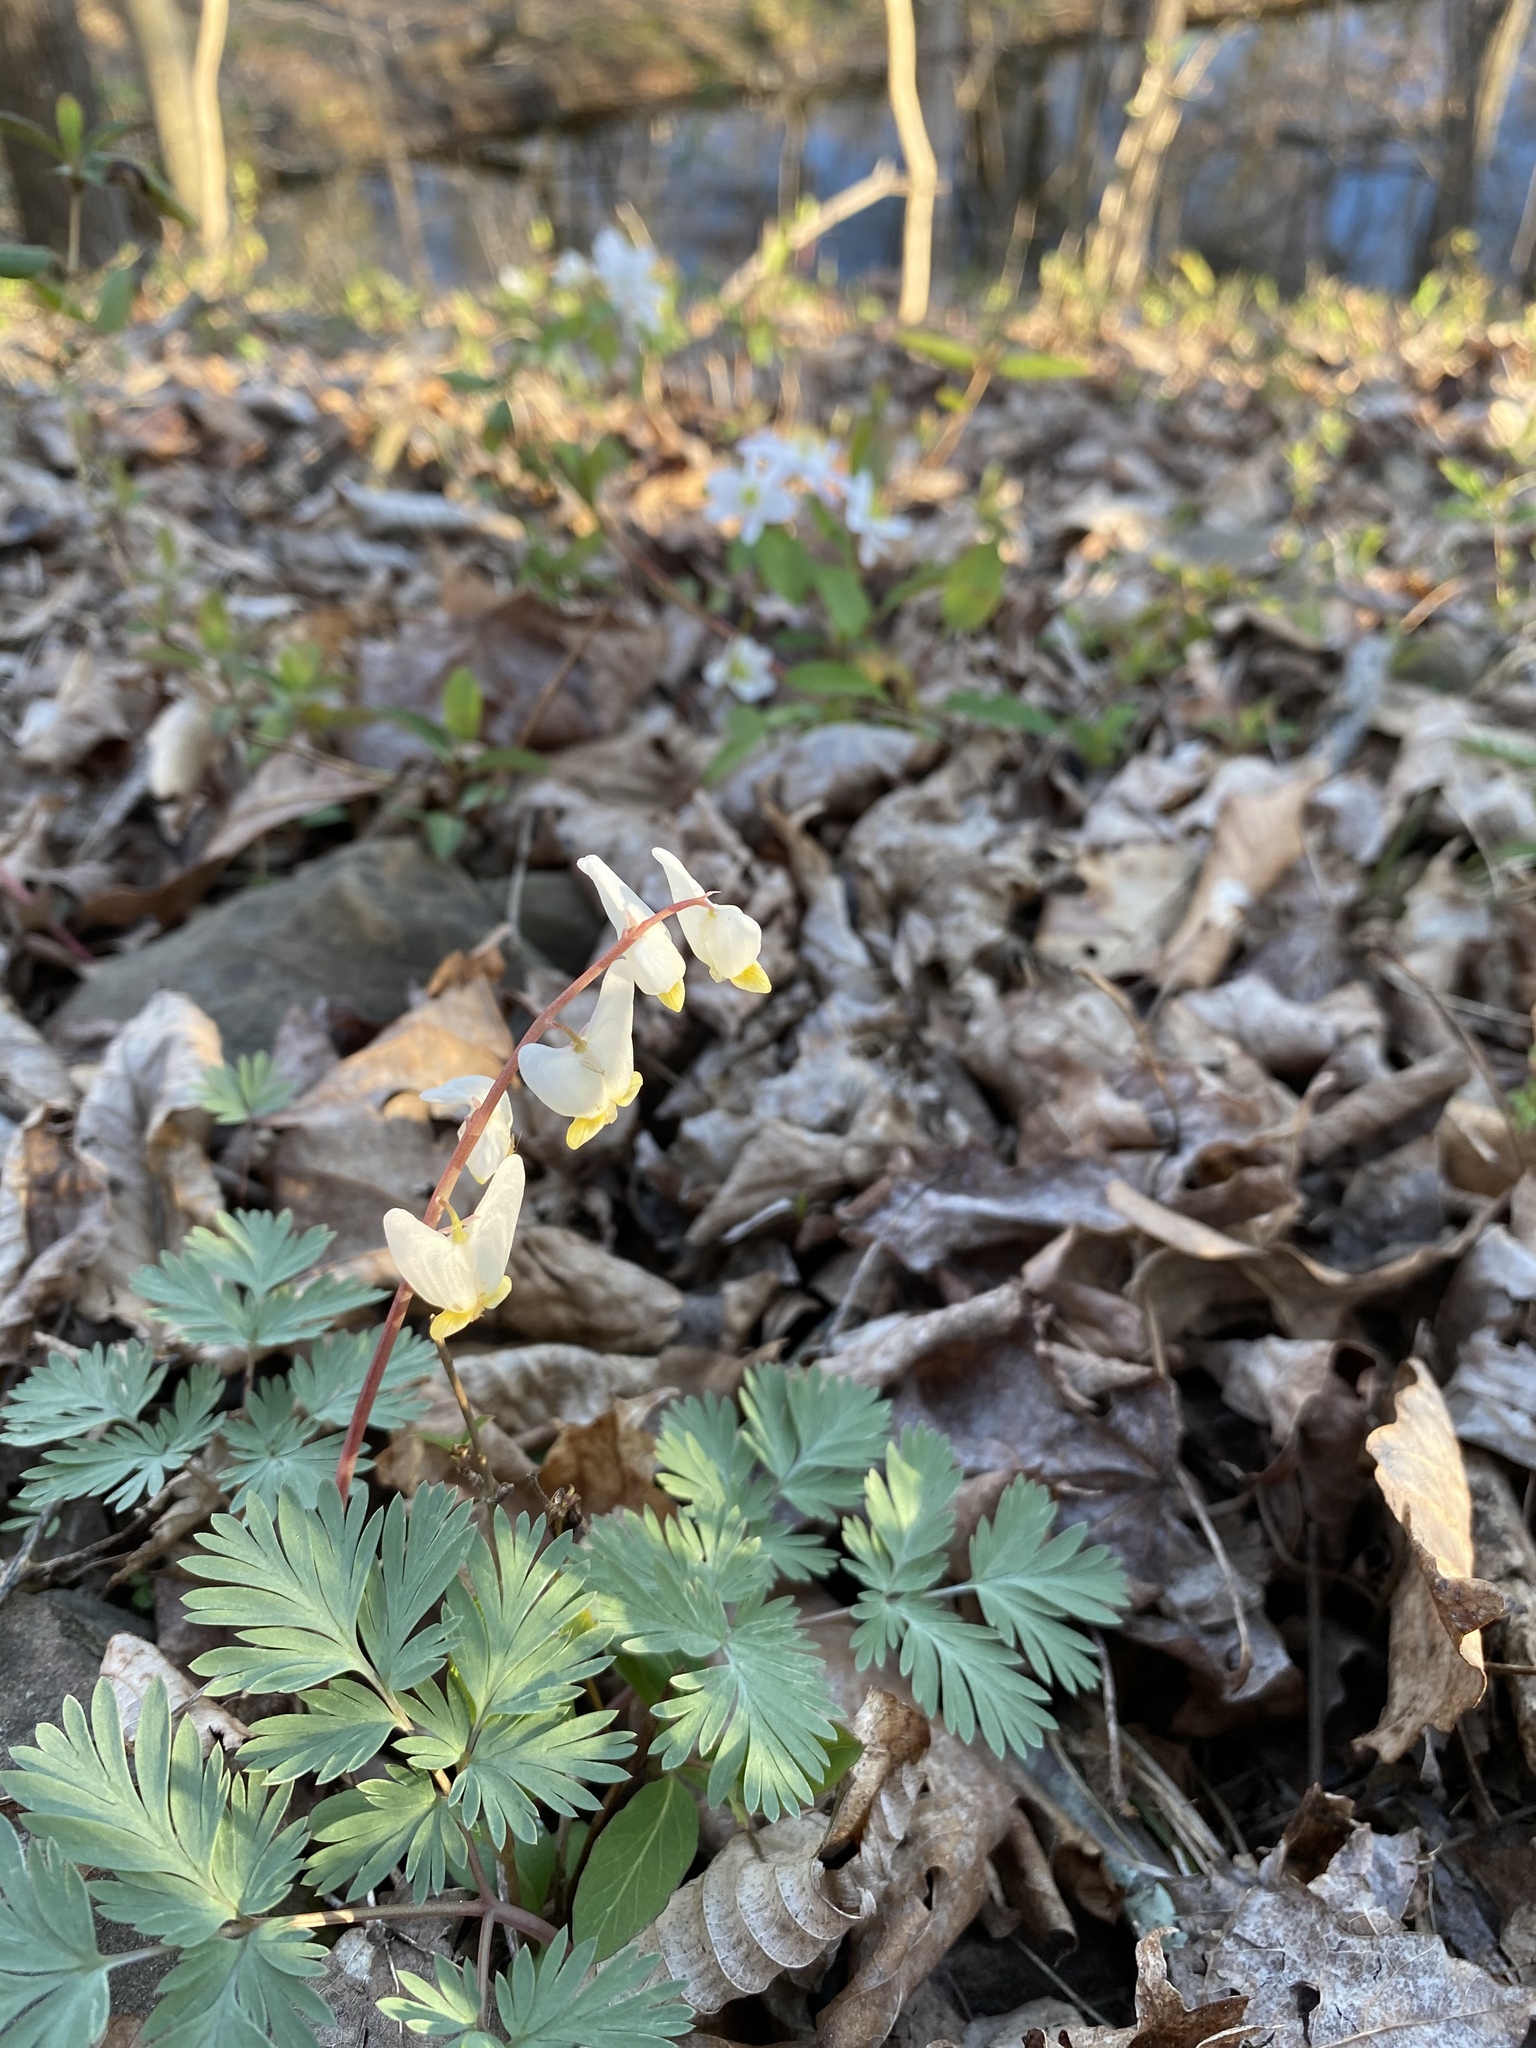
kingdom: Plantae
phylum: Tracheophyta
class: Magnoliopsida
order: Ranunculales
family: Papaveraceae
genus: Dicentra
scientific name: Dicentra cucullaria
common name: Dutchman's breeches
